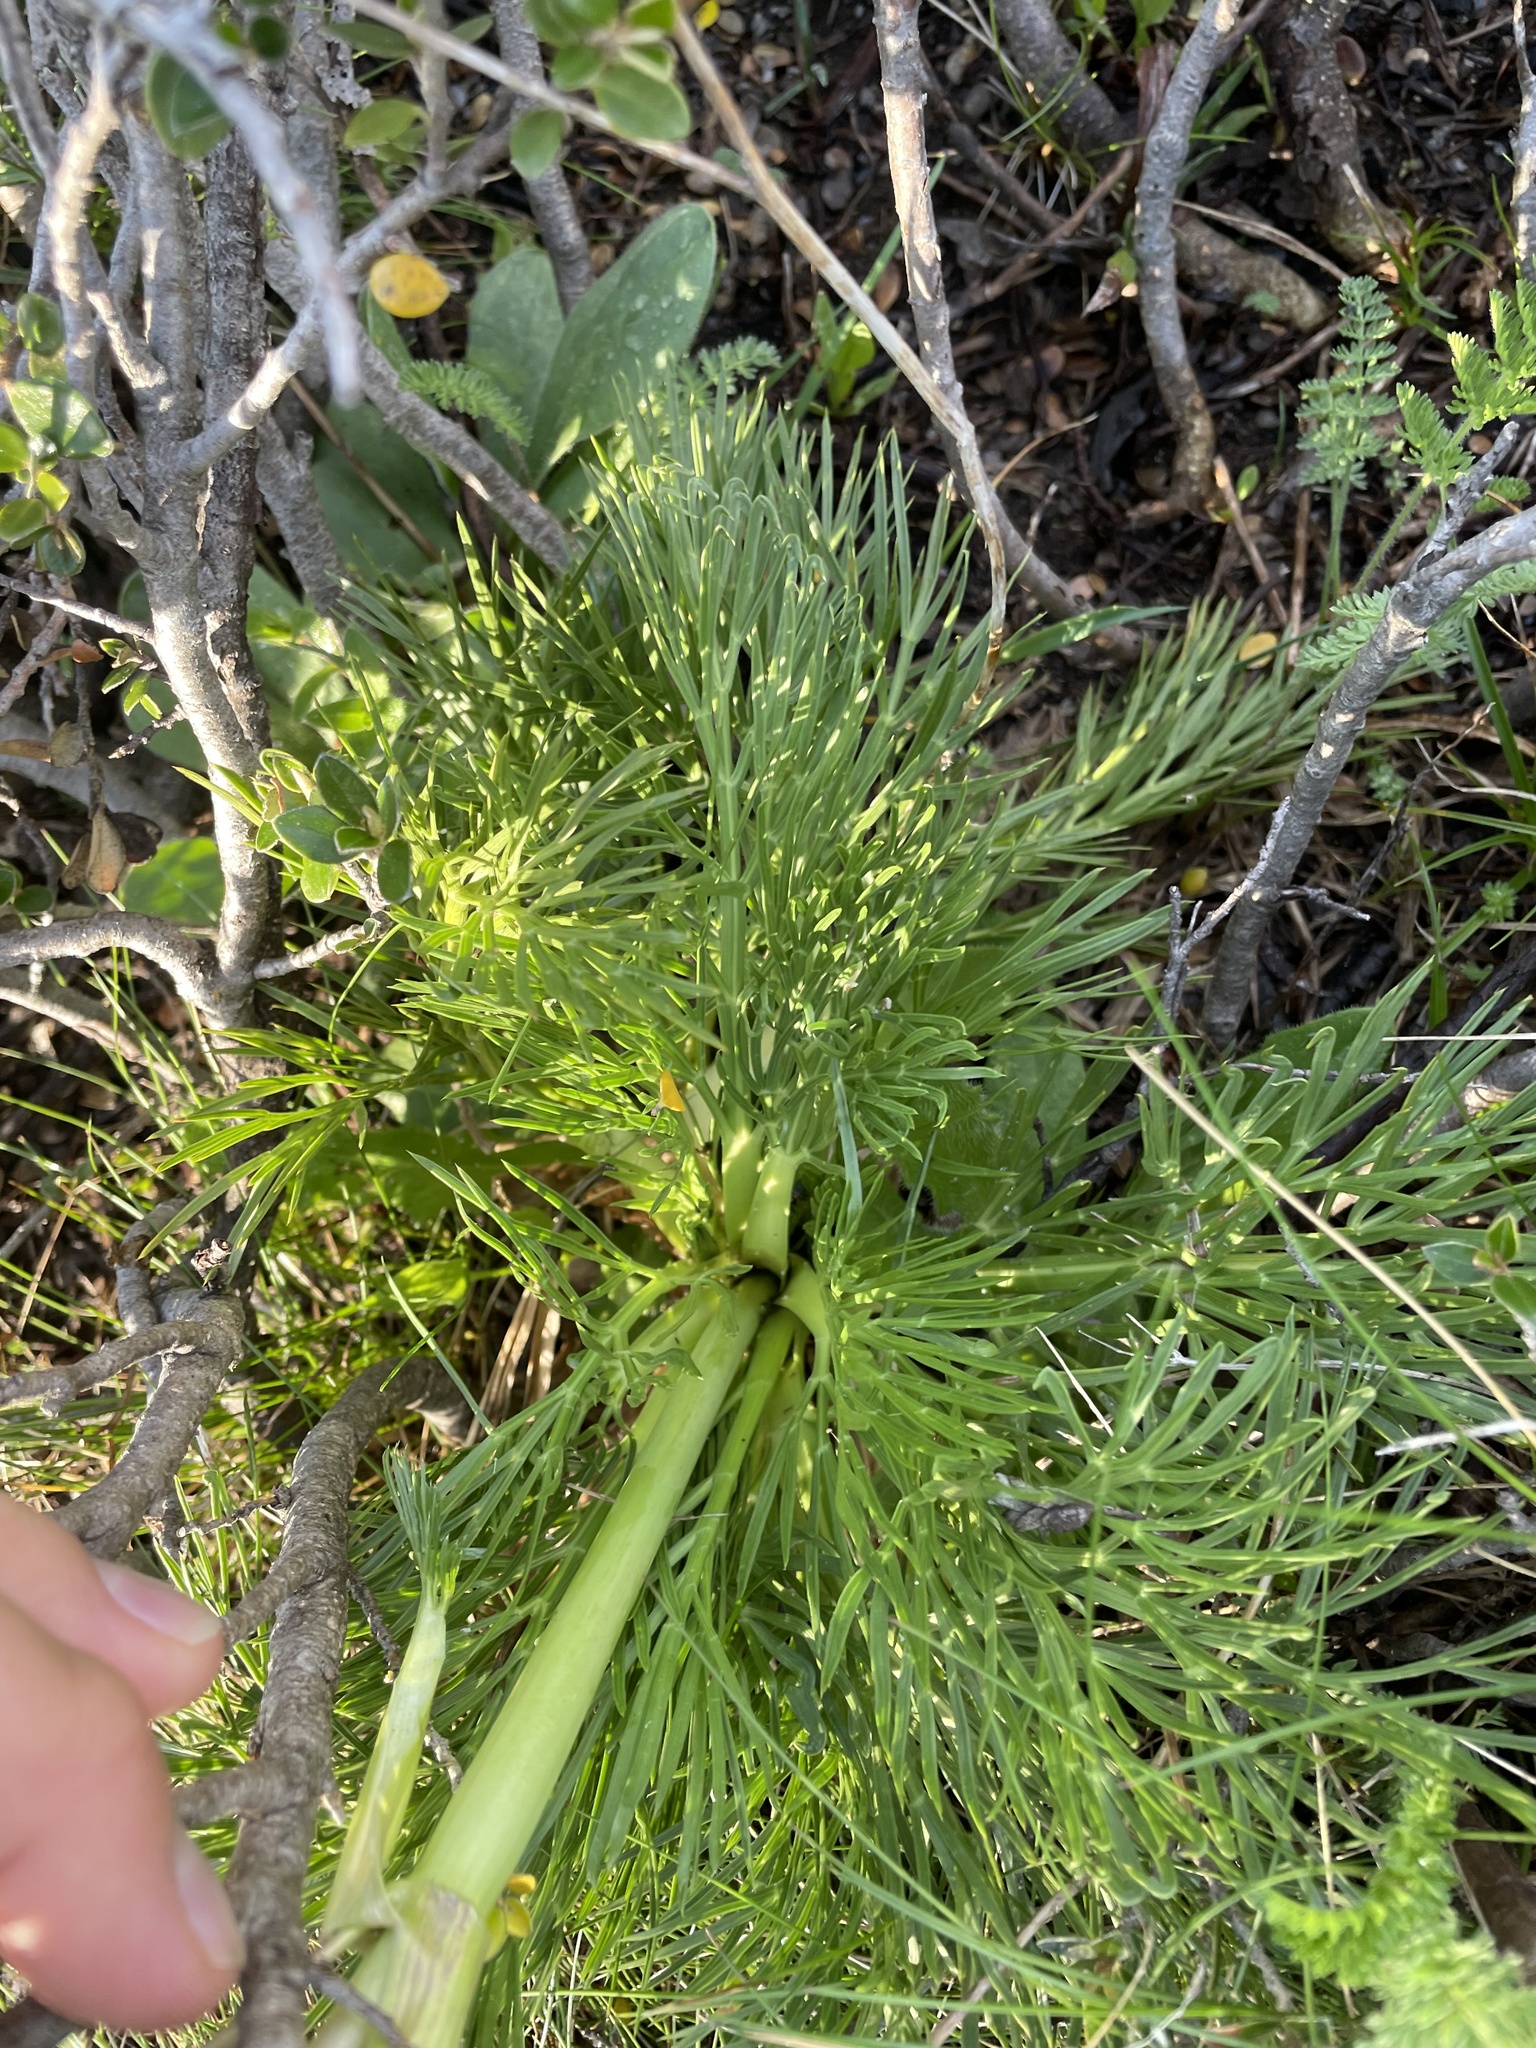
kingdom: Plantae
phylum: Tracheophyta
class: Magnoliopsida
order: Apiales
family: Apiaceae
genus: Aciphylla
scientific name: Aciphylla glacialis
